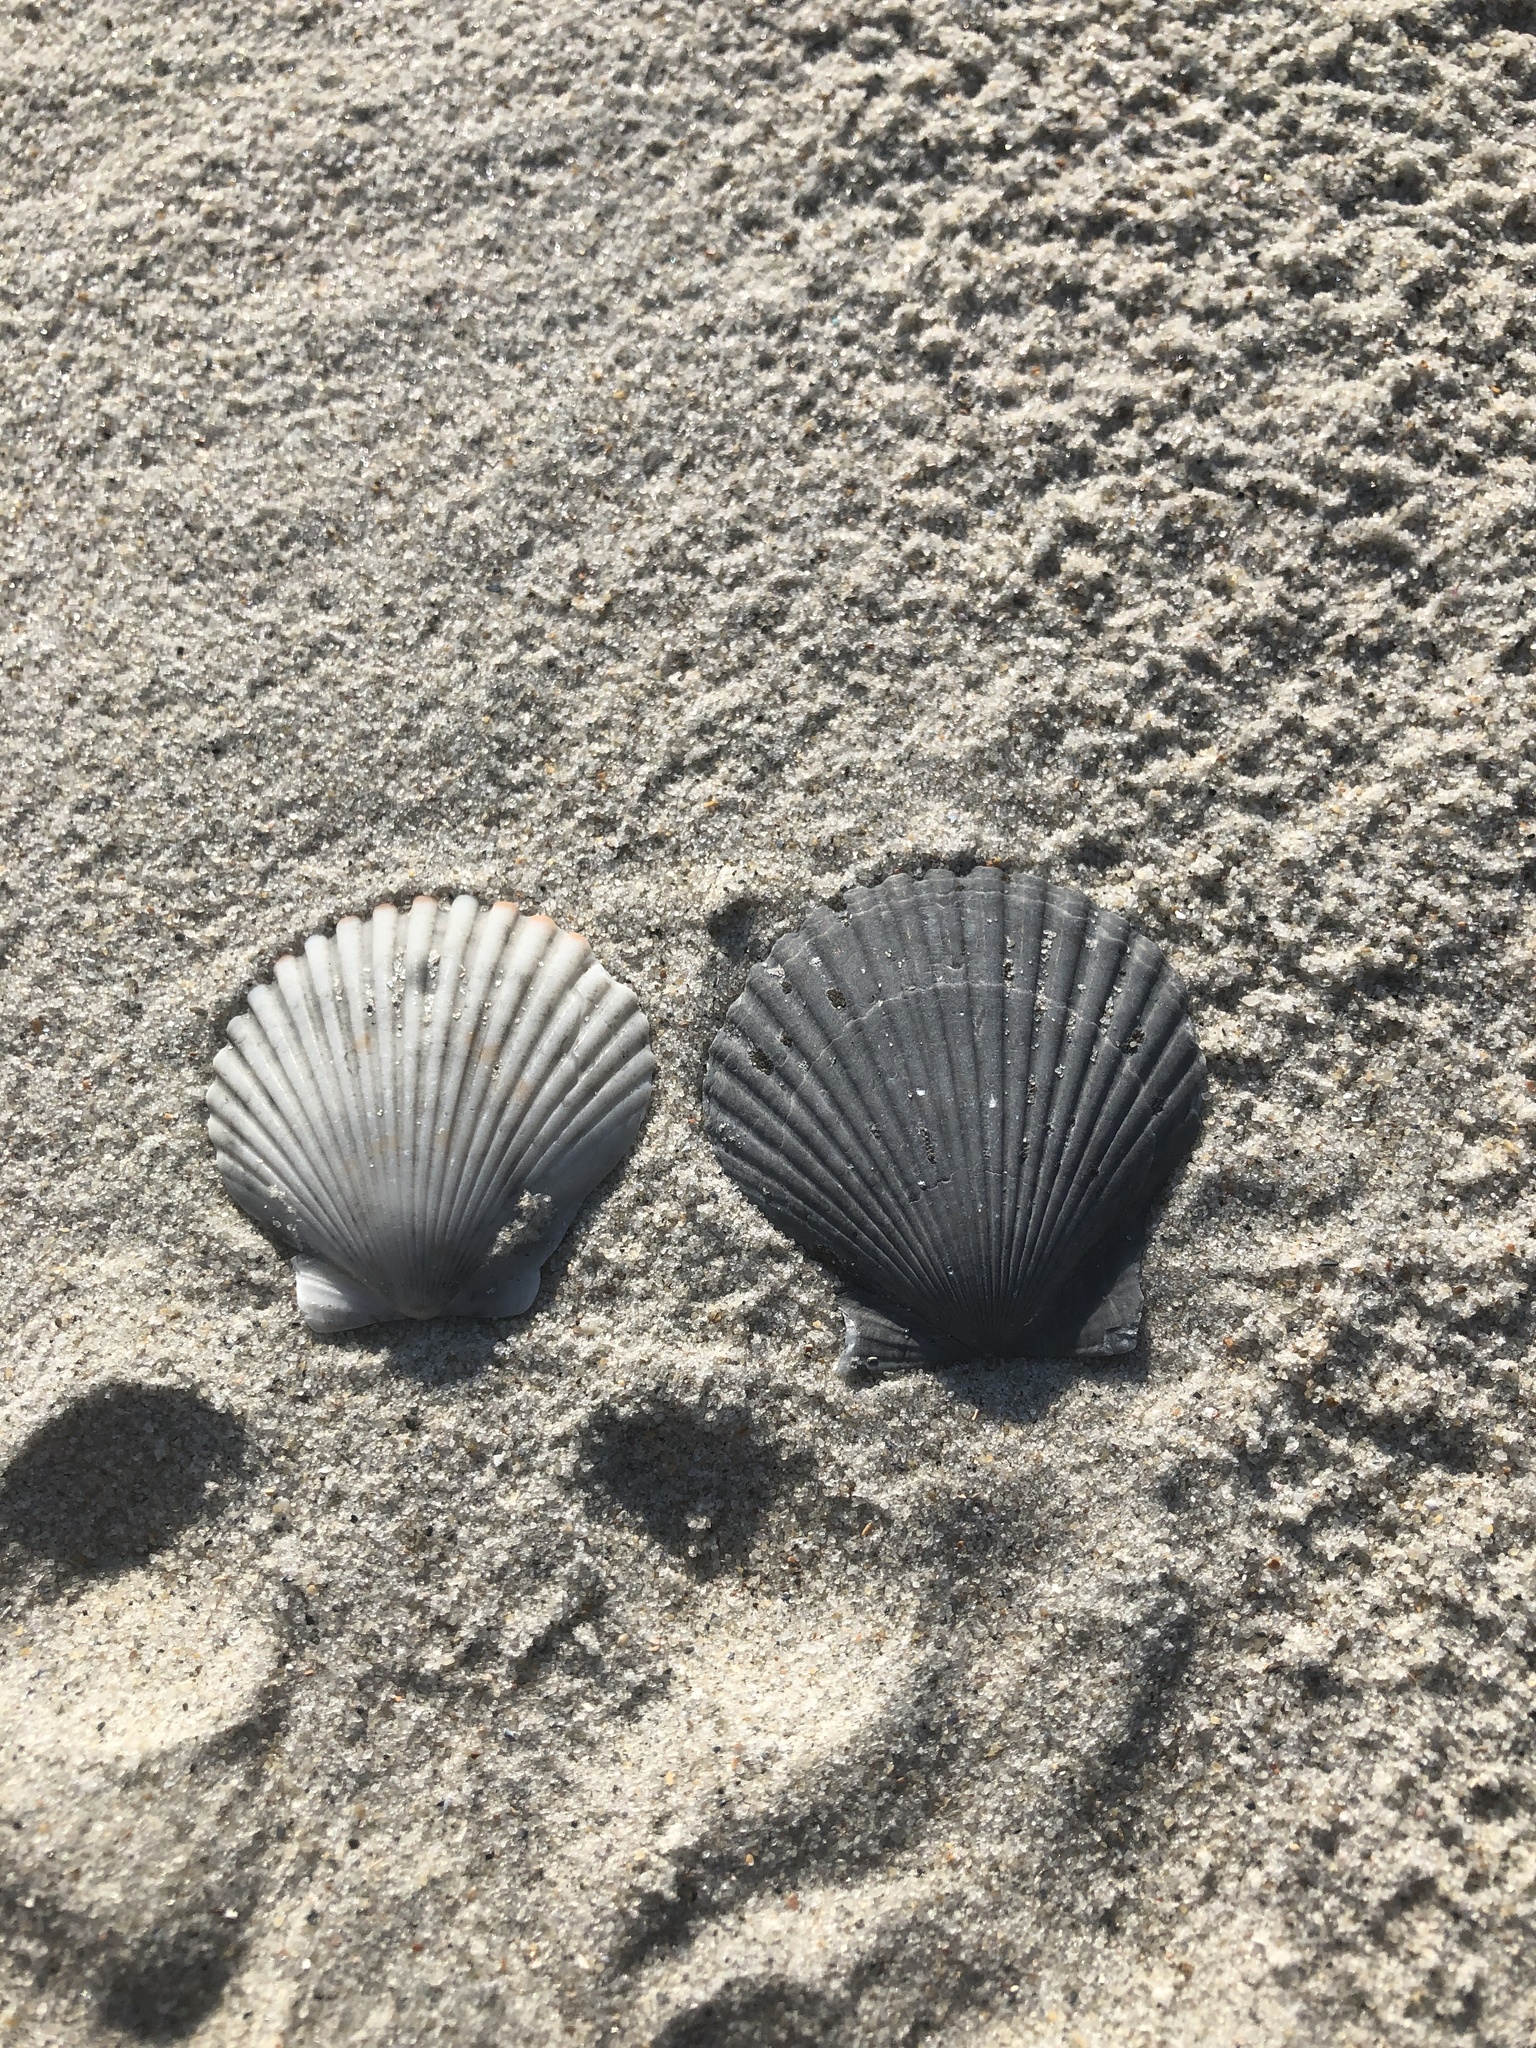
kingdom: Animalia
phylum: Mollusca
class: Bivalvia
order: Pectinida
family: Pectinidae
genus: Argopecten
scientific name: Argopecten irradians
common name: Atlantic bay scallop
